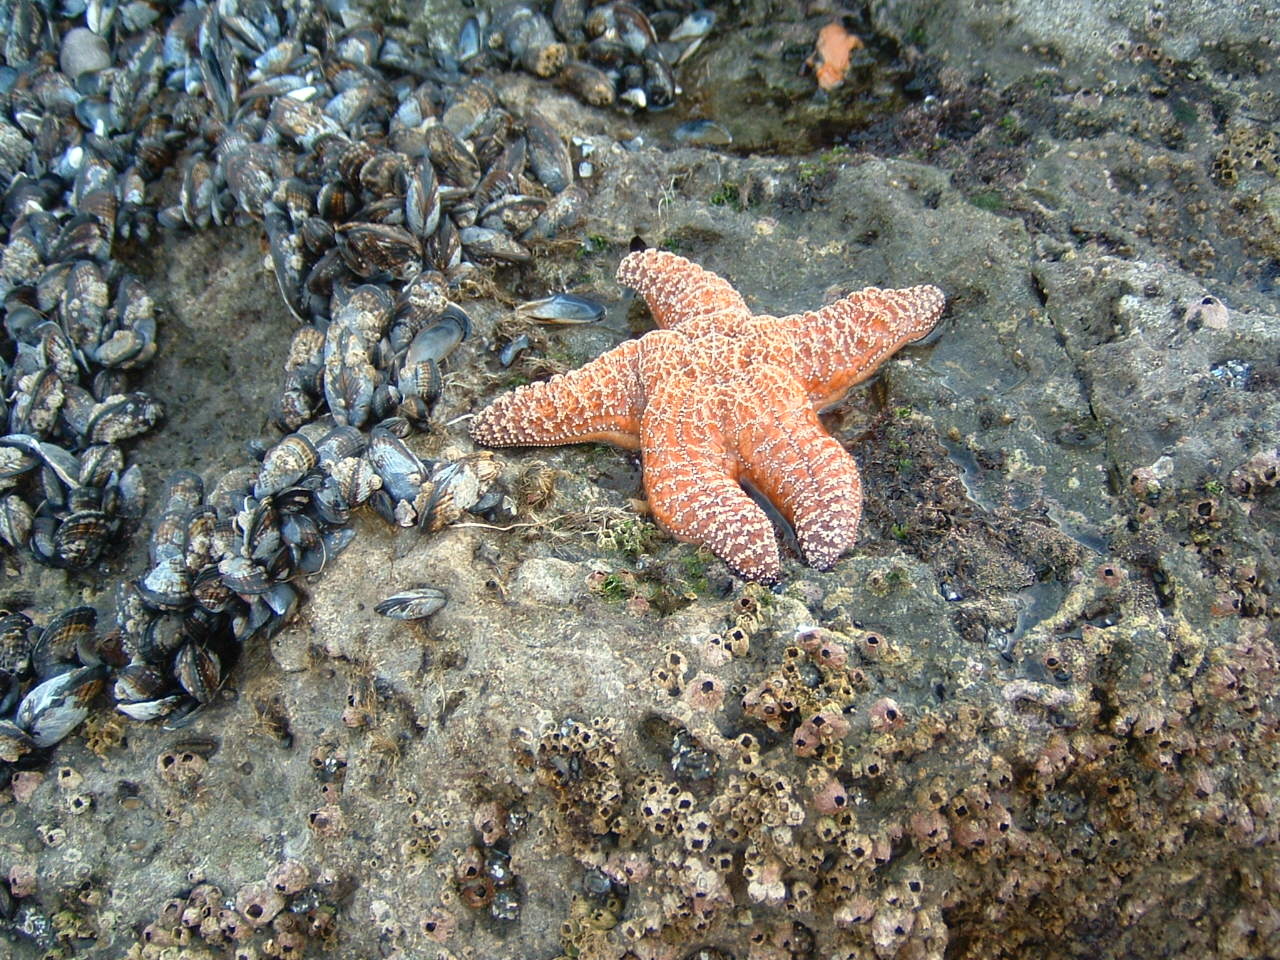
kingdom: Animalia
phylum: Echinodermata
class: Asteroidea
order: Forcipulatida
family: Asteriidae
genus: Pisaster
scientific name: Pisaster ochraceus
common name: Ochre stars
